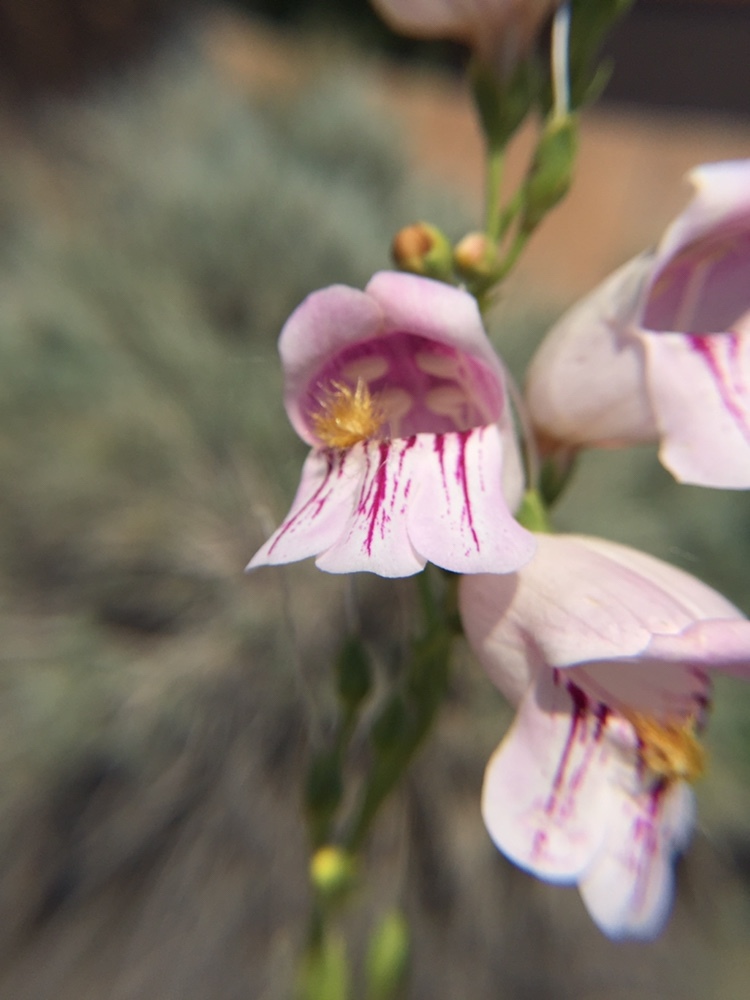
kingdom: Plantae
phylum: Tracheophyta
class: Magnoliopsida
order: Lamiales
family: Plantaginaceae
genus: Penstemon
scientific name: Penstemon palmeri
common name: Palmer penstemon
